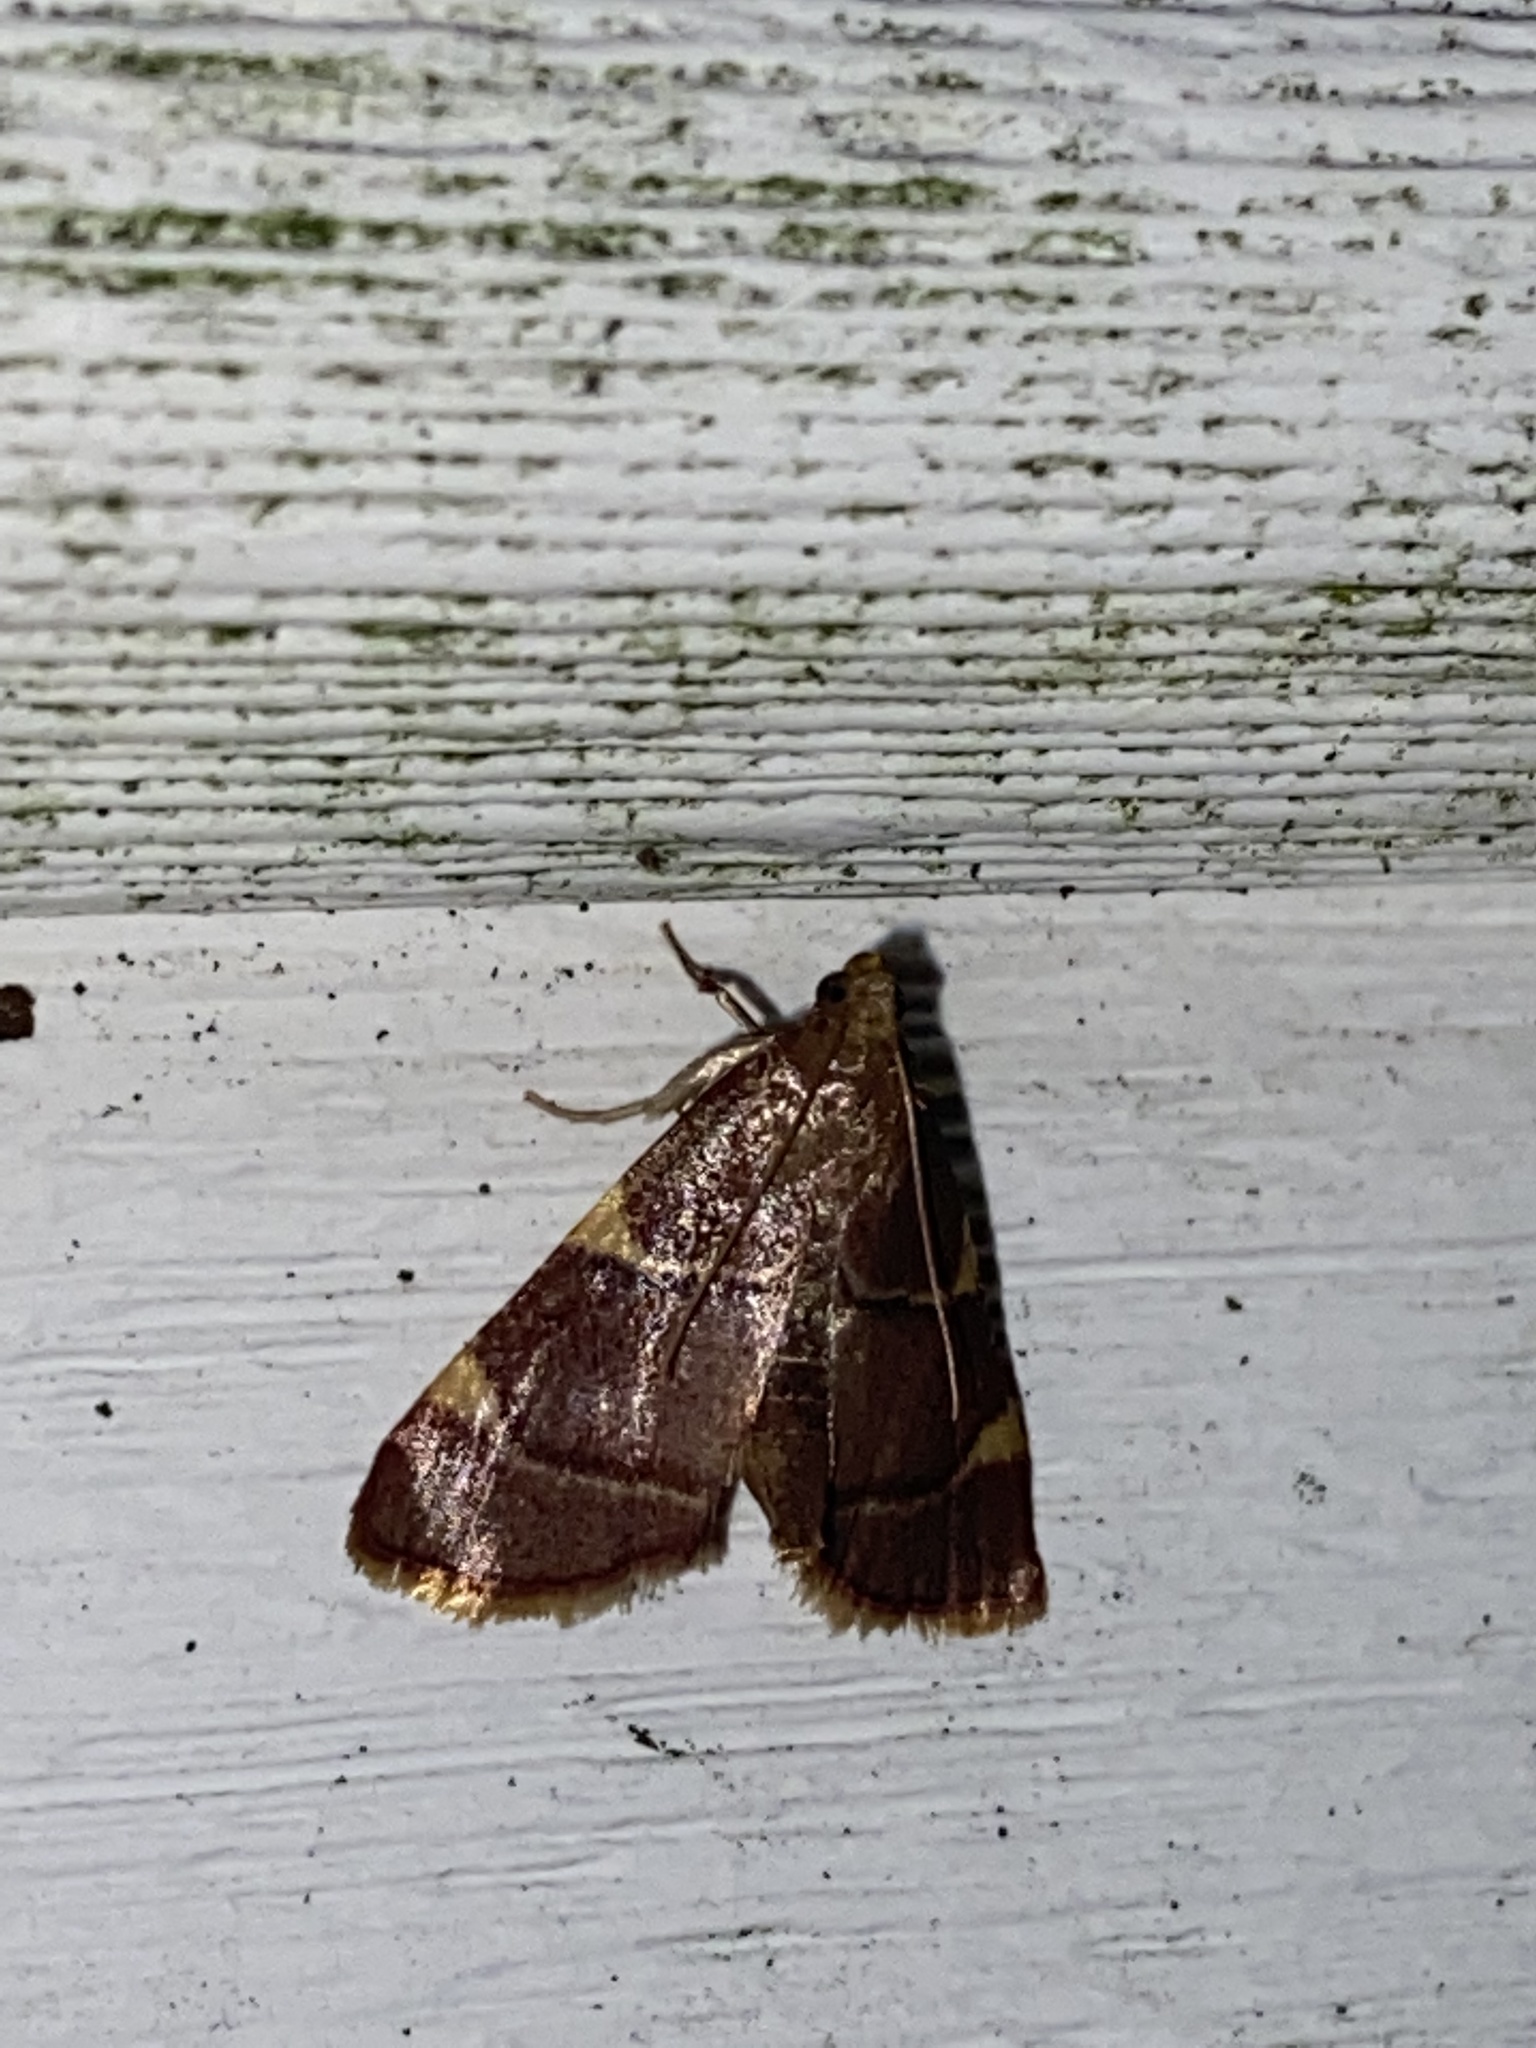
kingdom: Animalia
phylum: Arthropoda
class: Insecta
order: Lepidoptera
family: Pyralidae
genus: Hypsopygia
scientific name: Hypsopygia olinalis
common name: Yellow-fringed dolichomia moth
